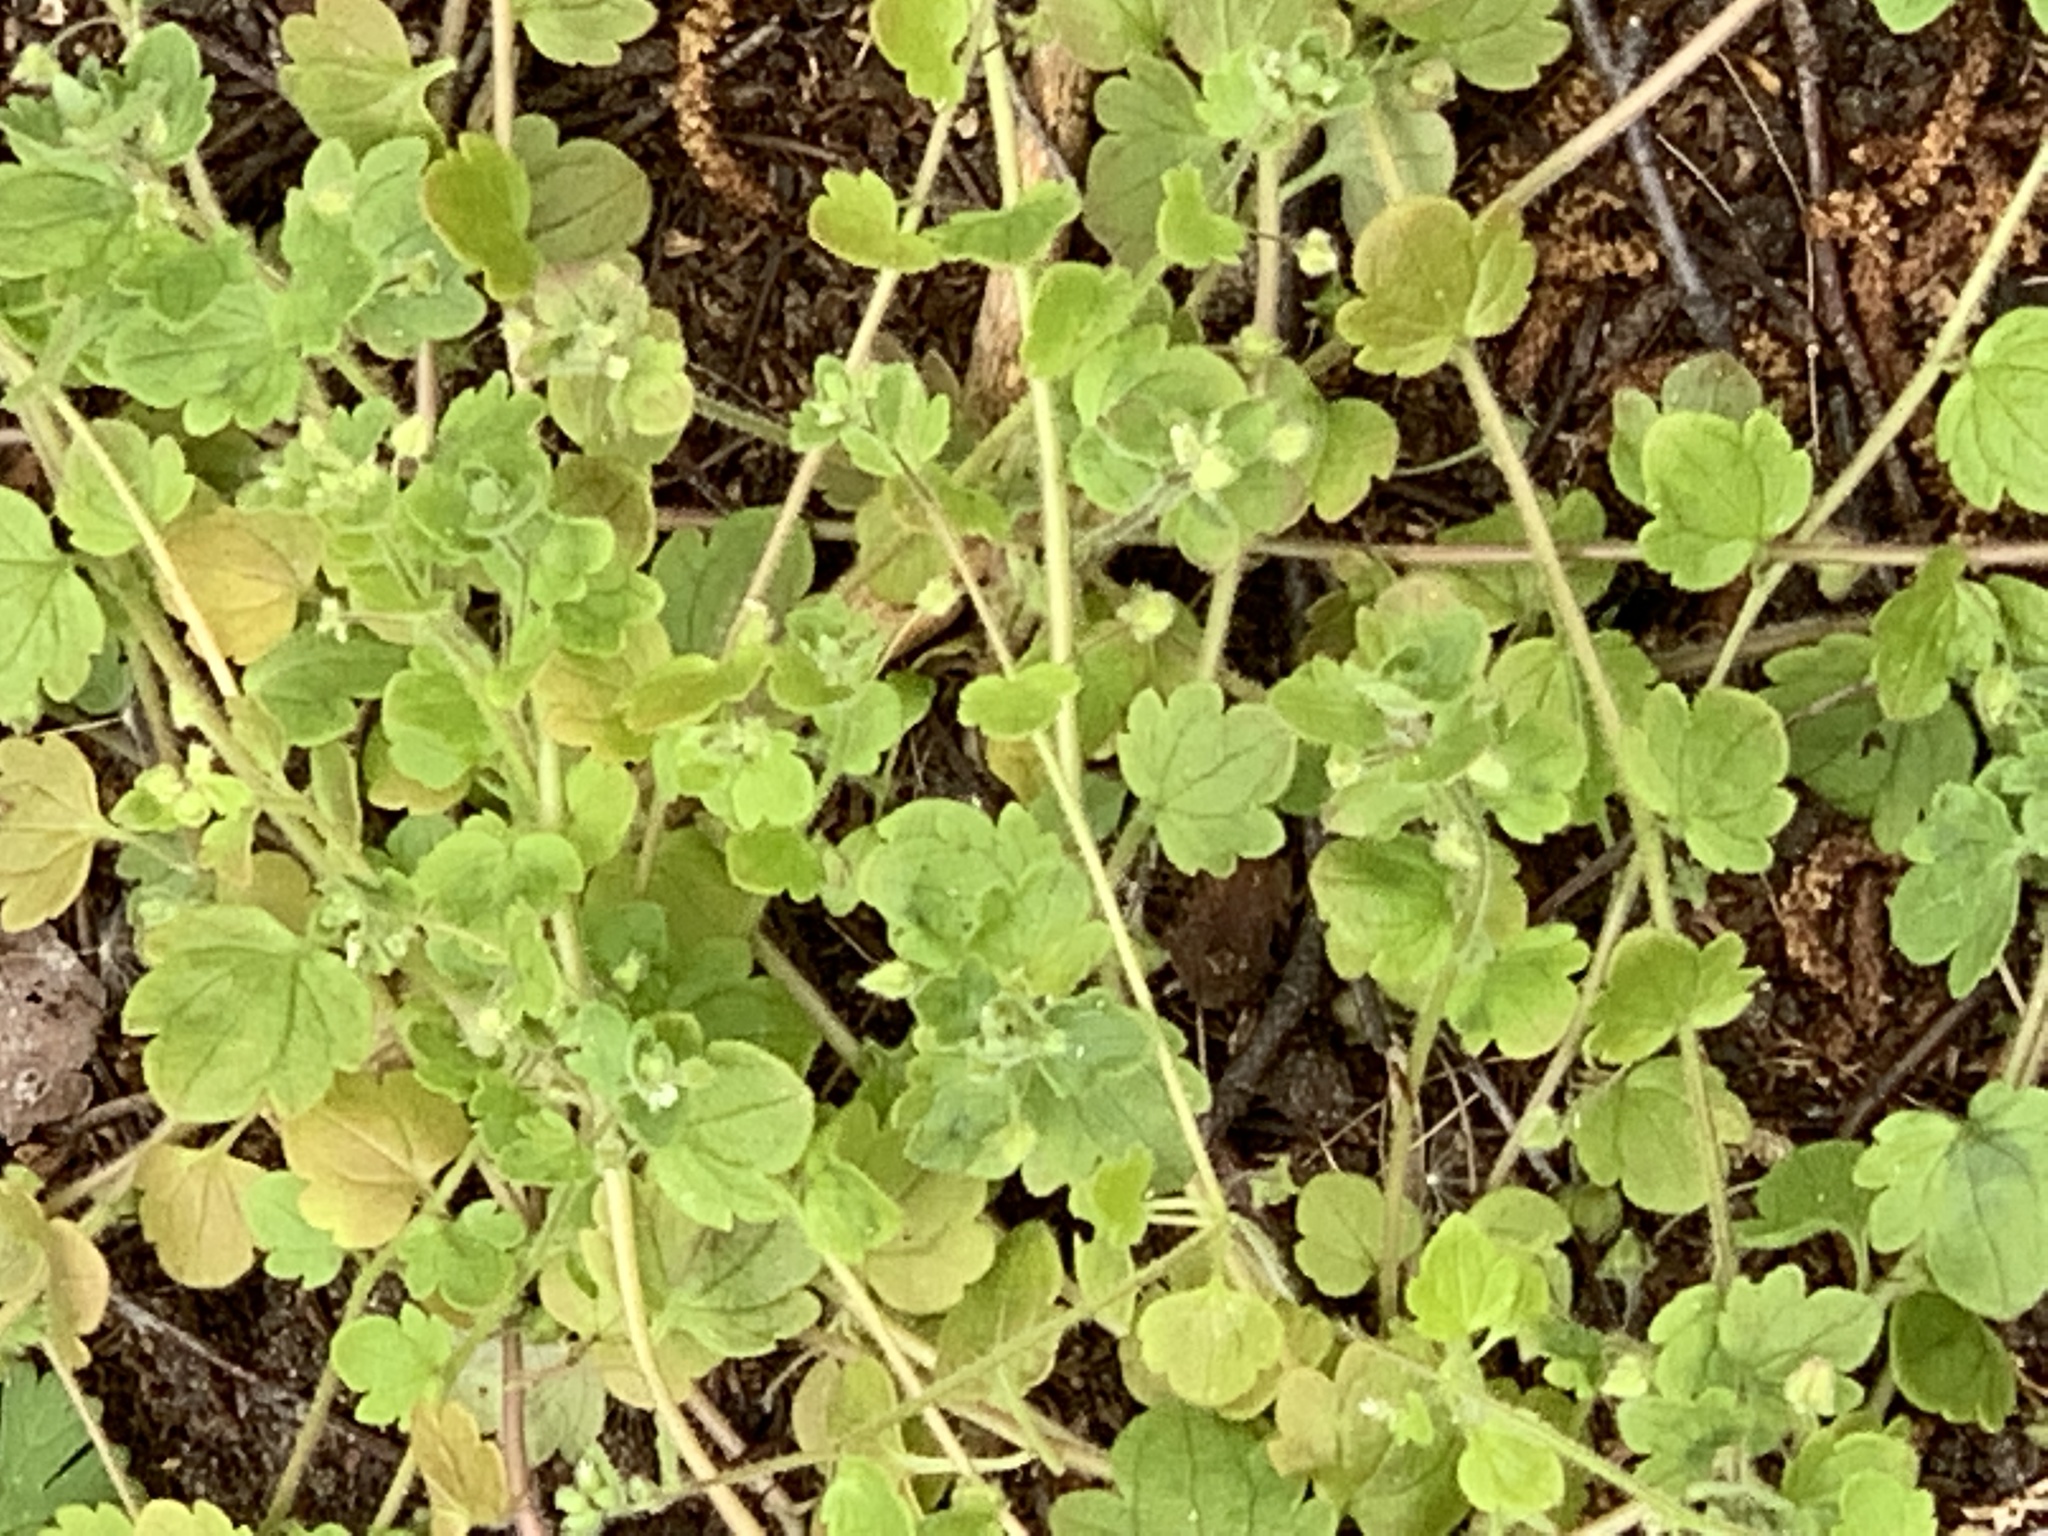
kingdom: Plantae
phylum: Tracheophyta
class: Magnoliopsida
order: Lamiales
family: Plantaginaceae
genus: Veronica
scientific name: Veronica hederifolia
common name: Ivy-leaved speedwell
